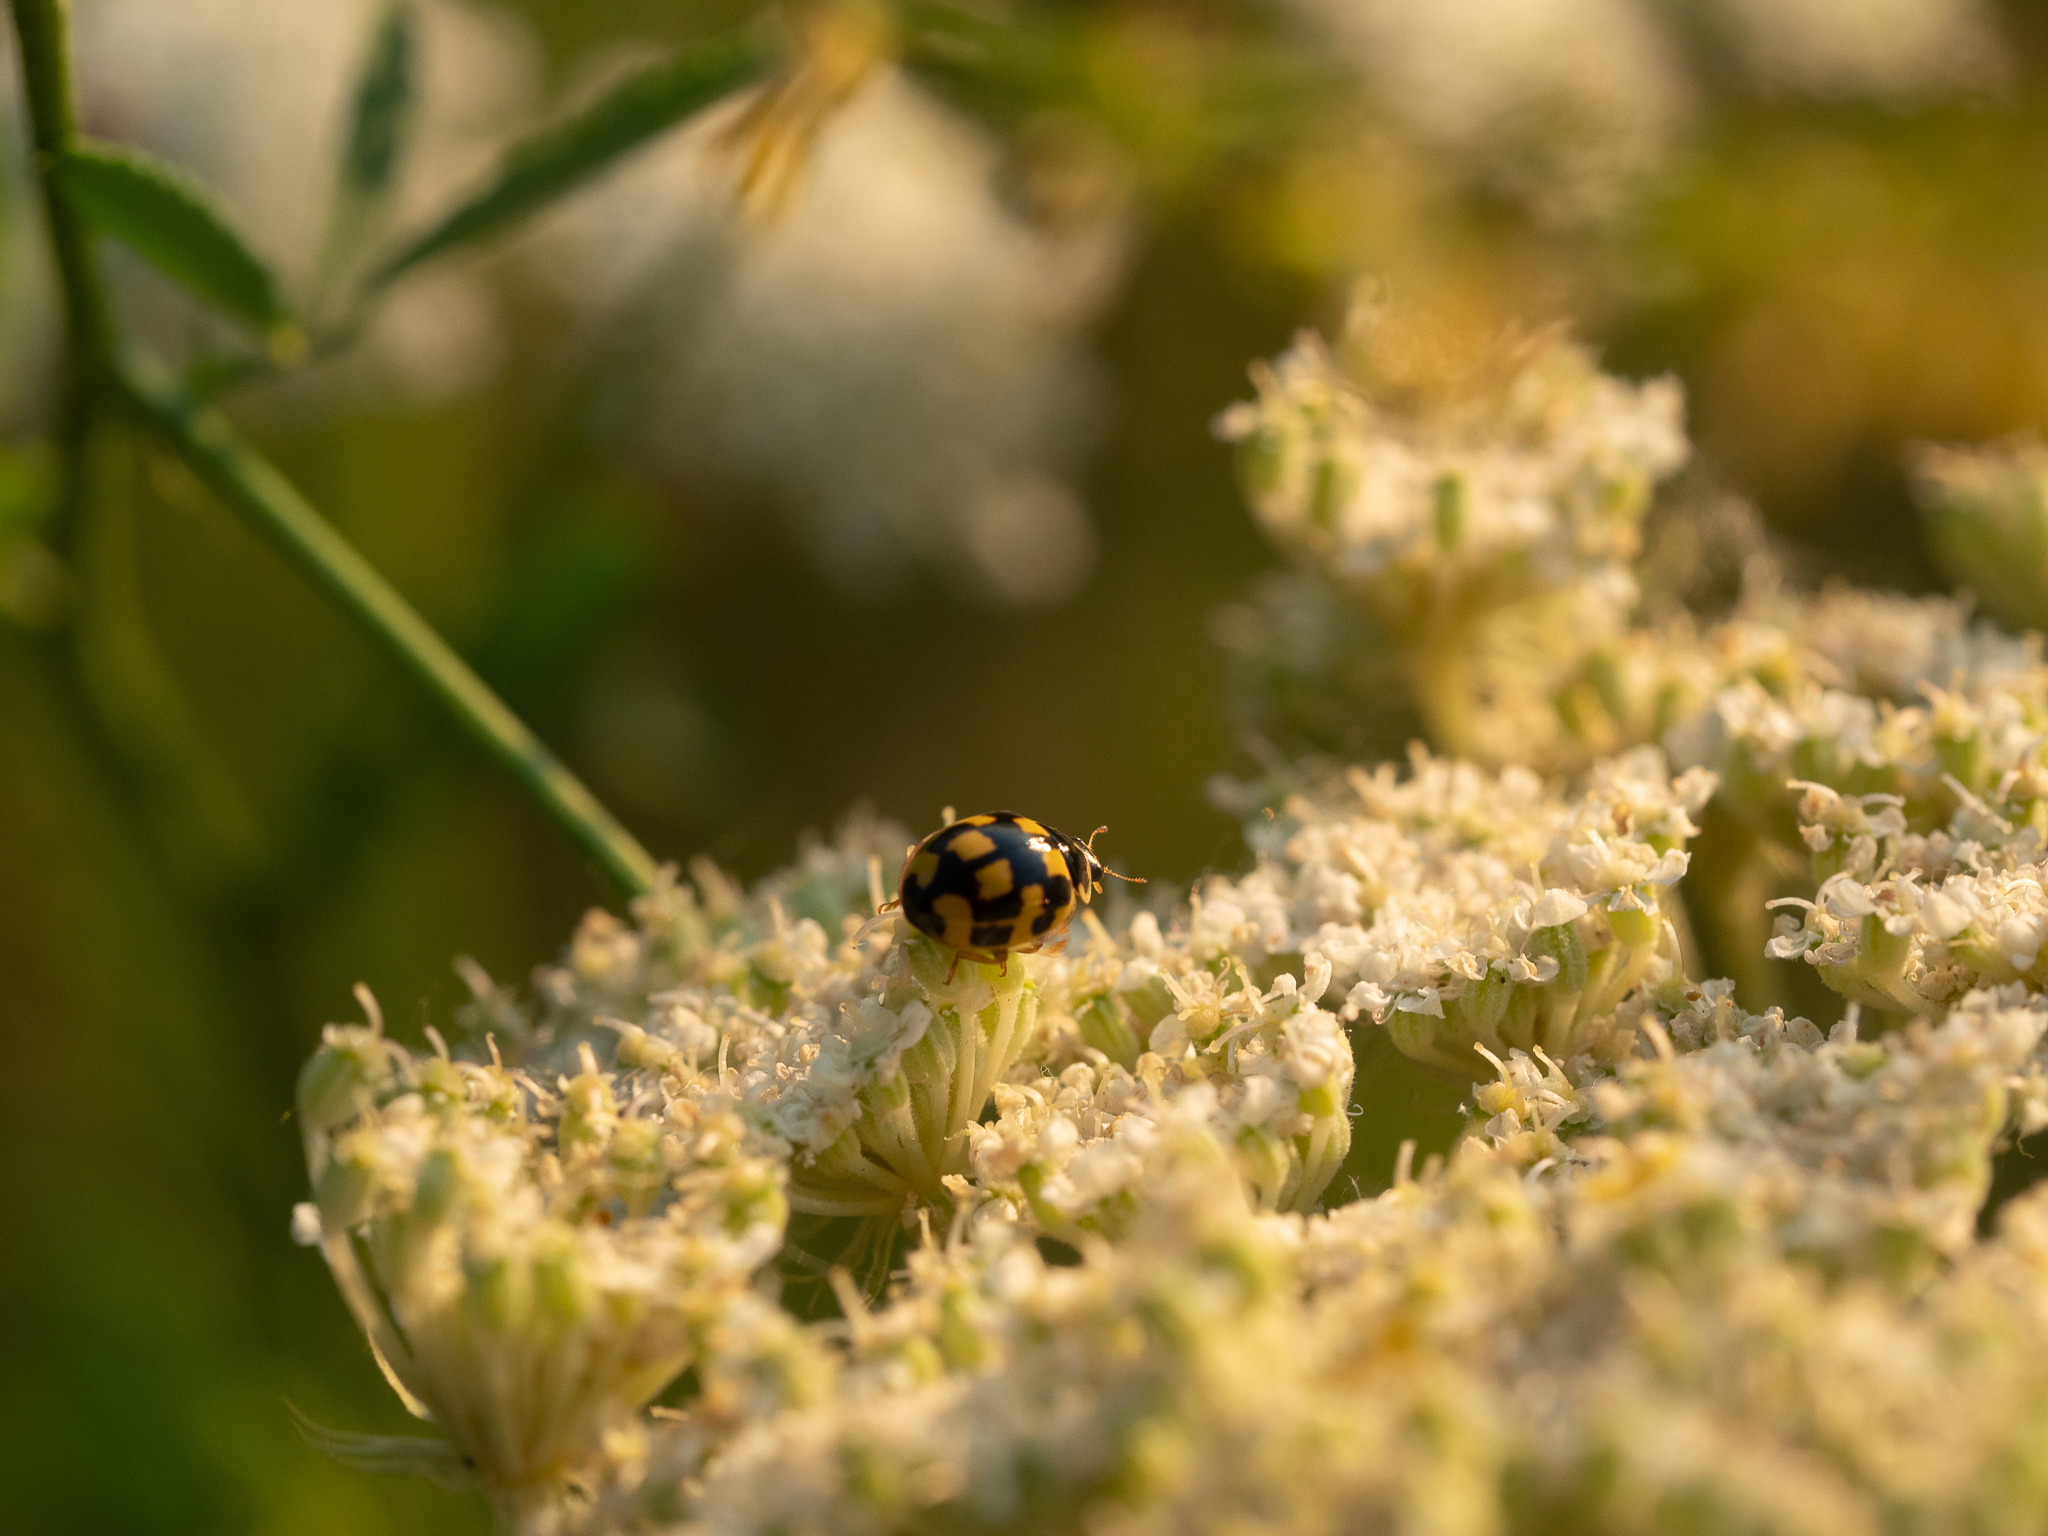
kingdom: Animalia
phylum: Arthropoda
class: Insecta
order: Coleoptera
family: Coccinellidae
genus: Propylaea
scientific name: Propylaea quatuordecimpunctata
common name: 14-spotted ladybird beetle
